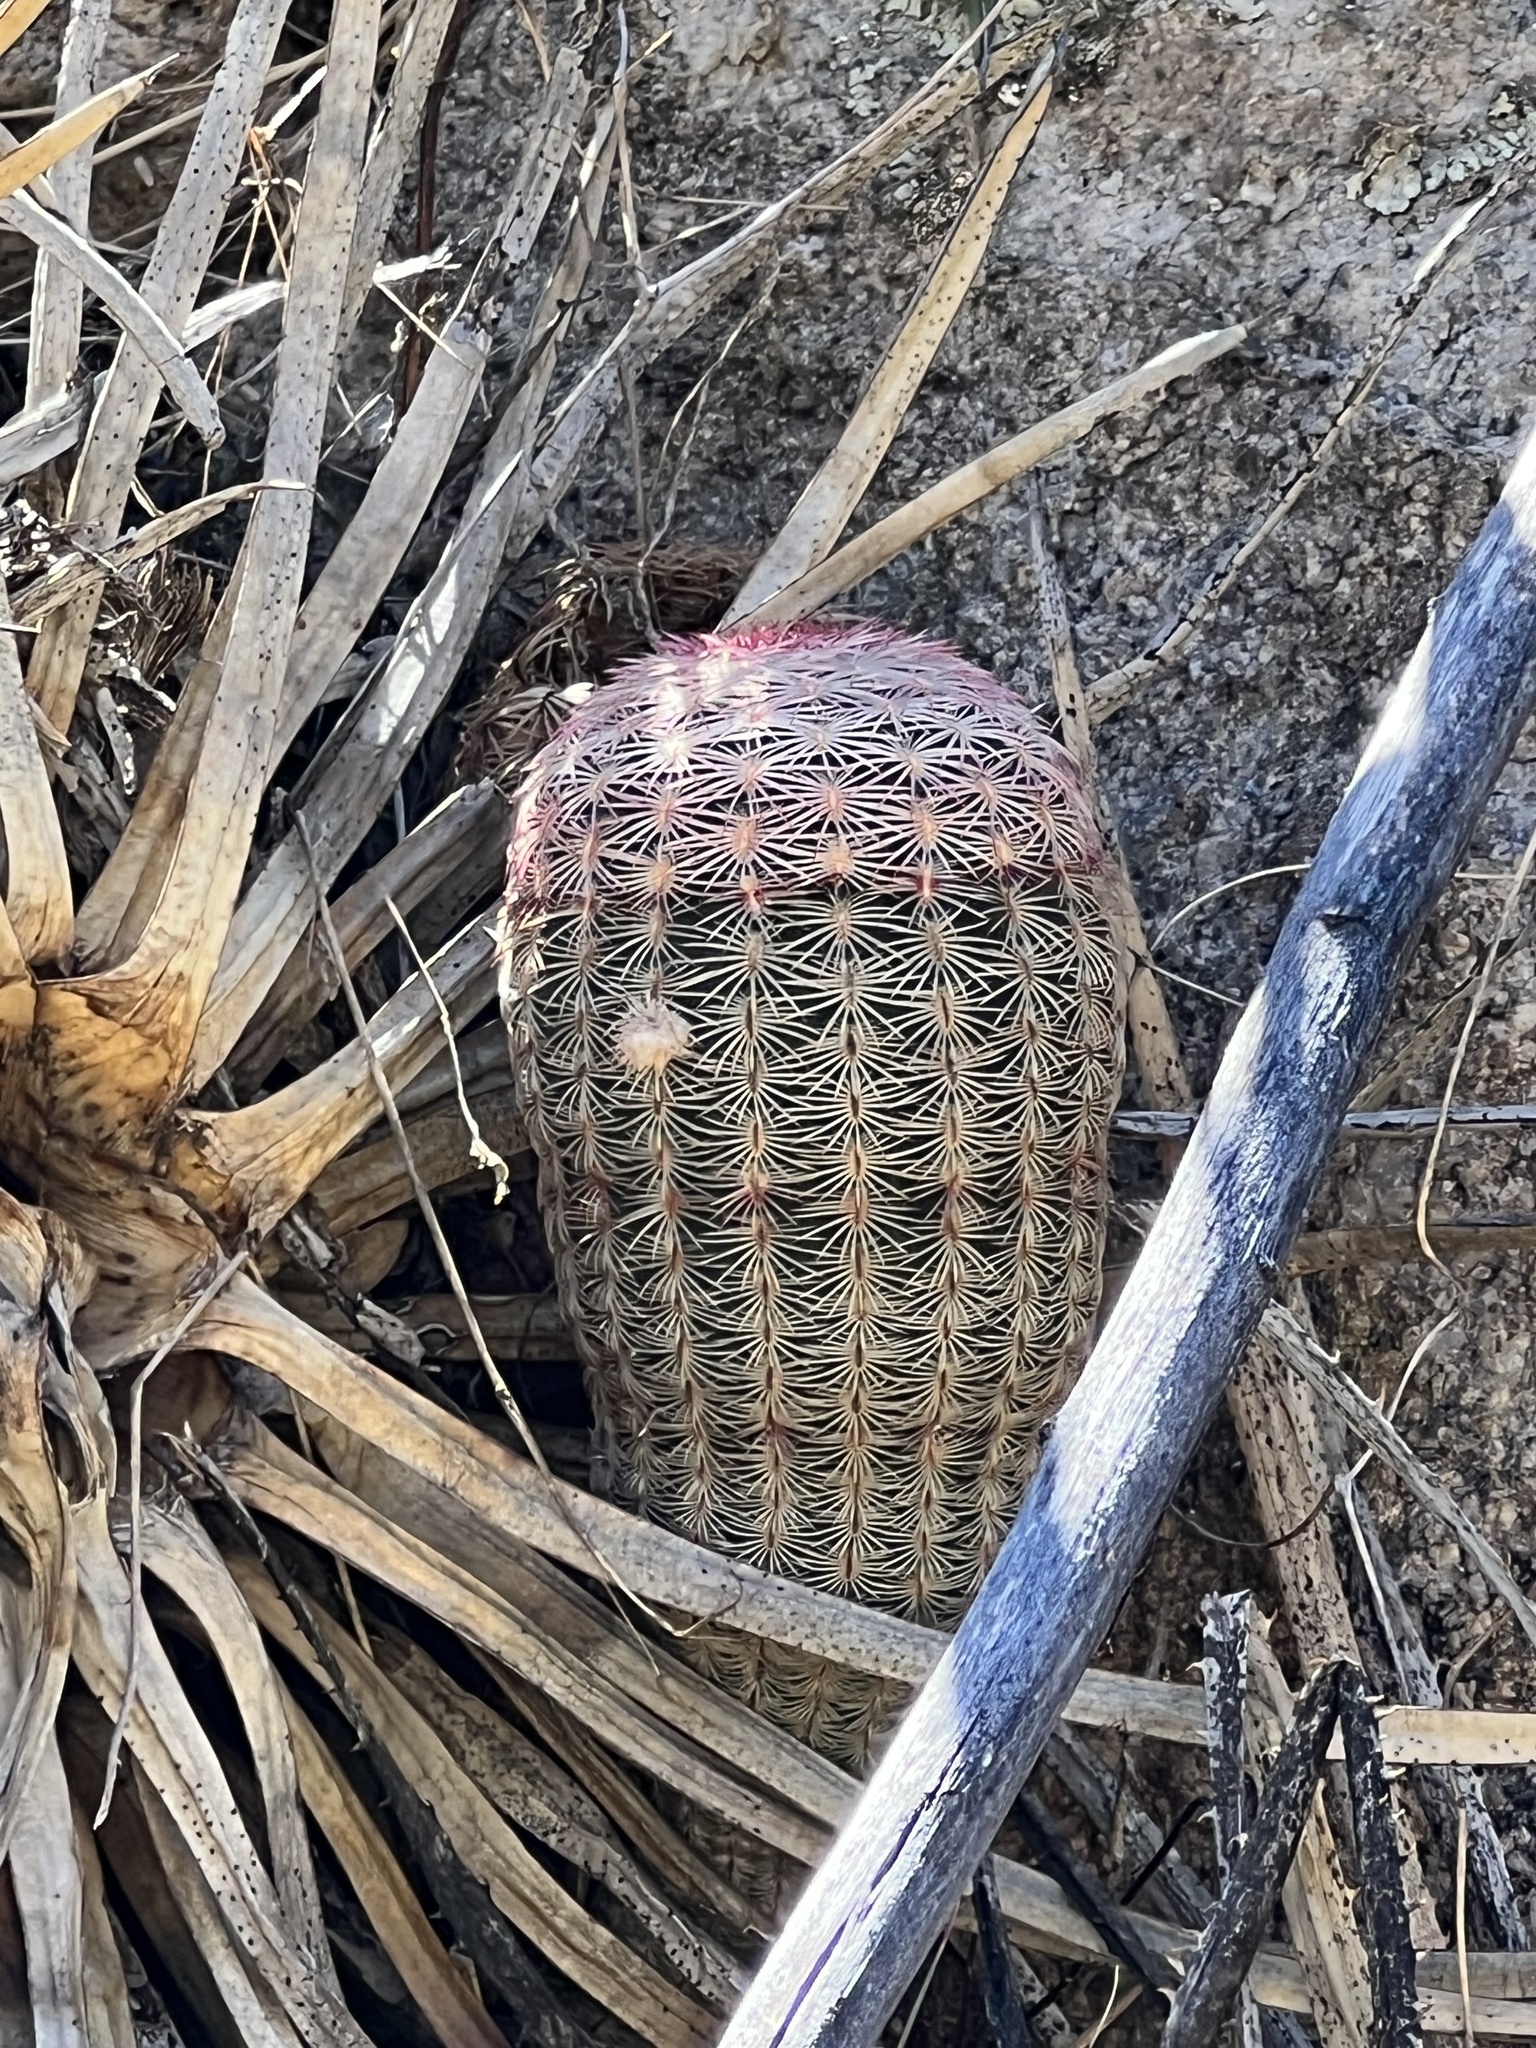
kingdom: Plantae
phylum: Tracheophyta
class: Magnoliopsida
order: Caryophyllales
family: Cactaceae
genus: Echinocereus
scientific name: Echinocereus rigidissimus
